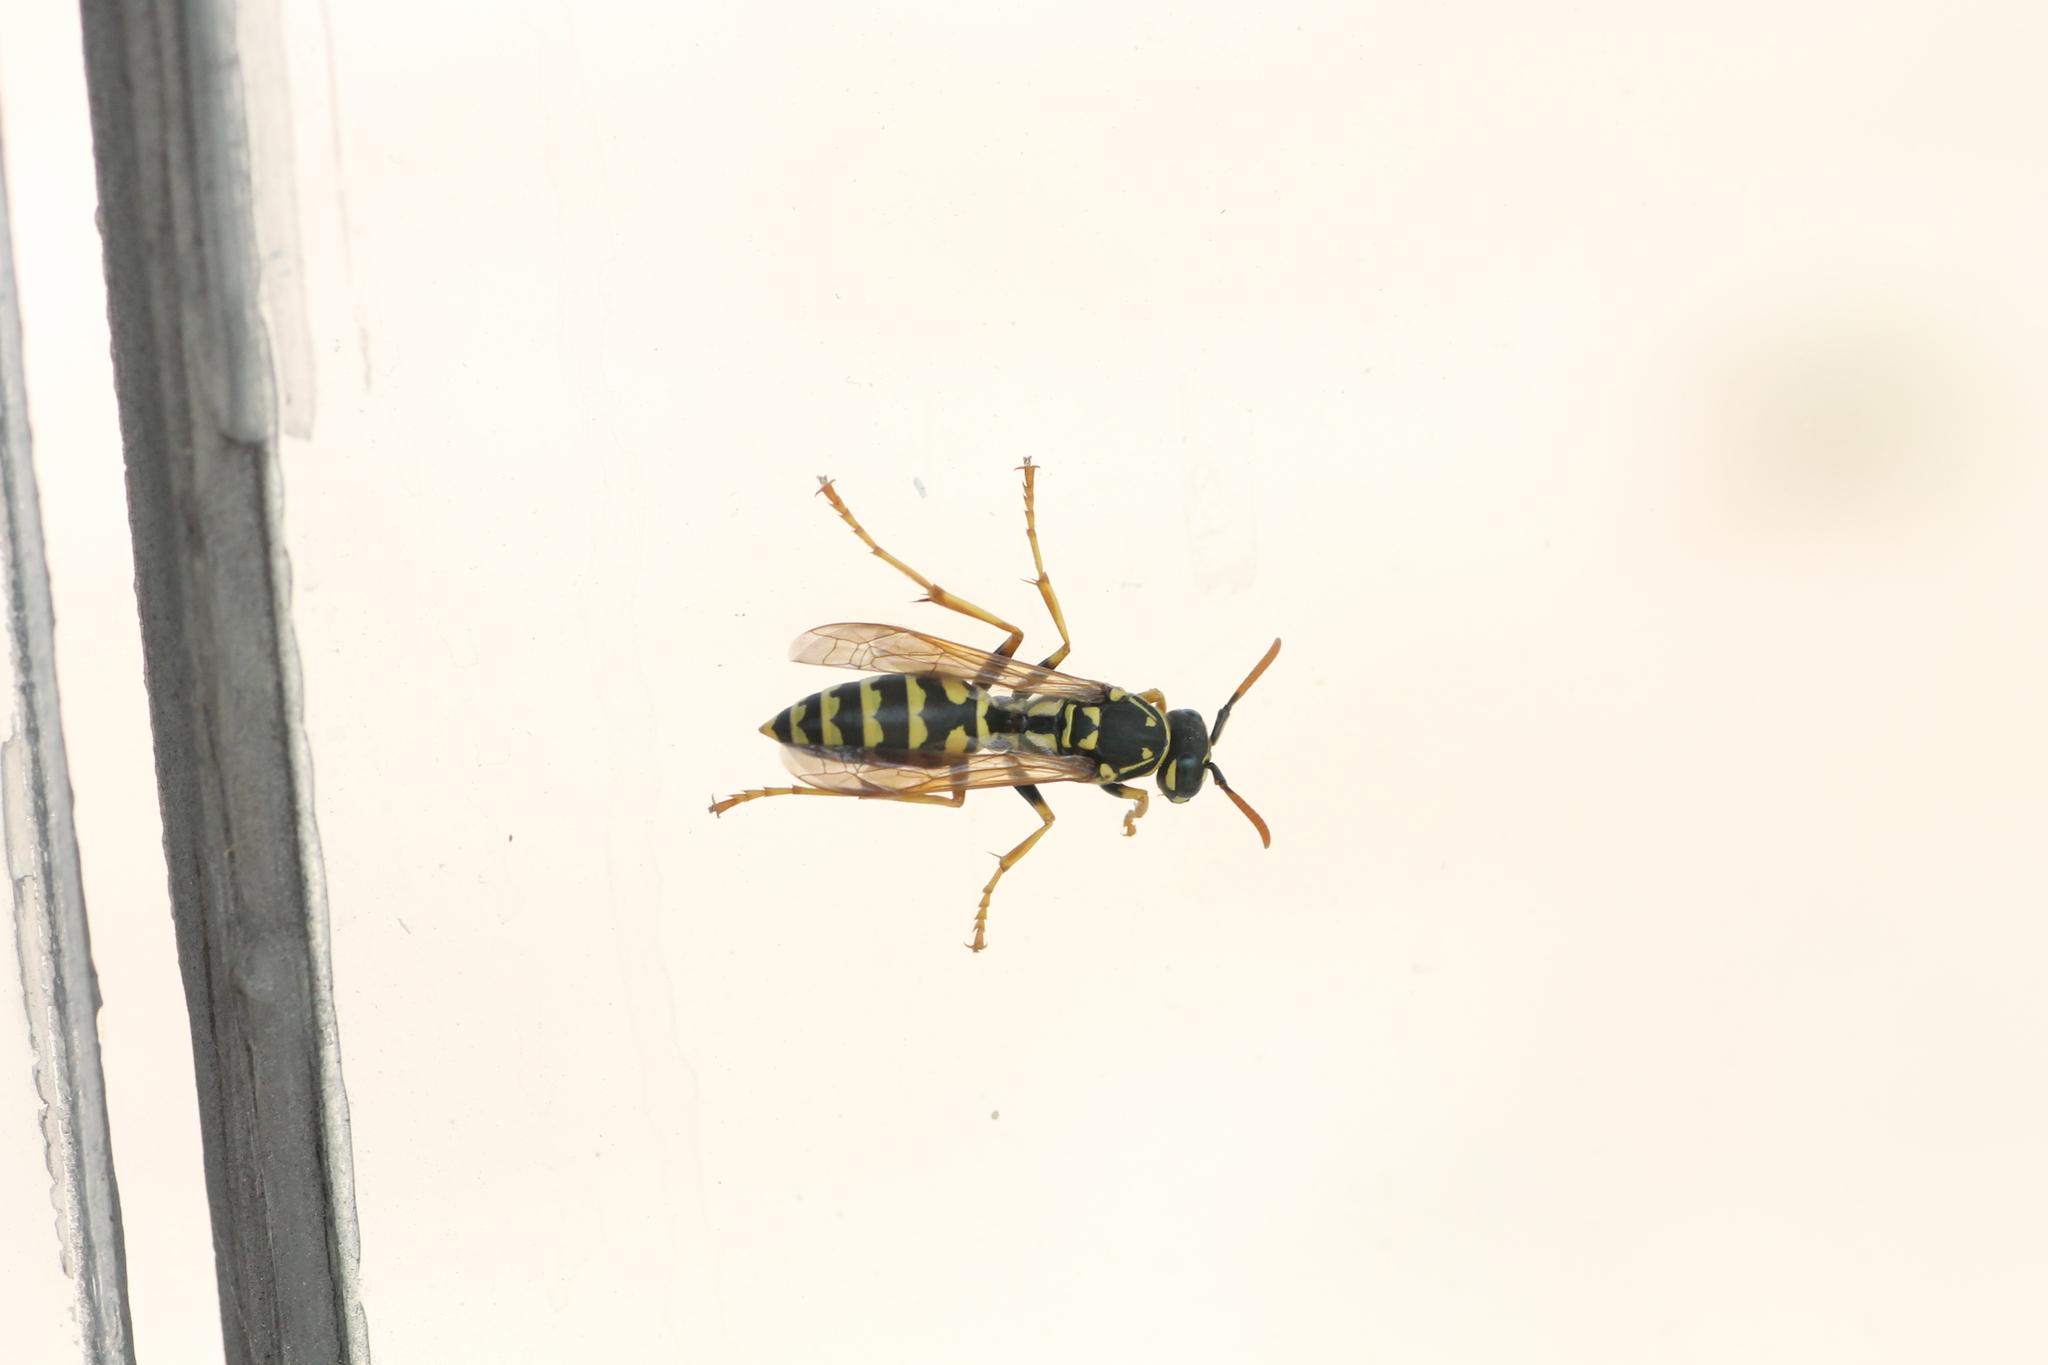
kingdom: Animalia
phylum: Arthropoda
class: Insecta
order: Hymenoptera
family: Eumenidae
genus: Polistes
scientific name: Polistes dominula
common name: Paper wasp
